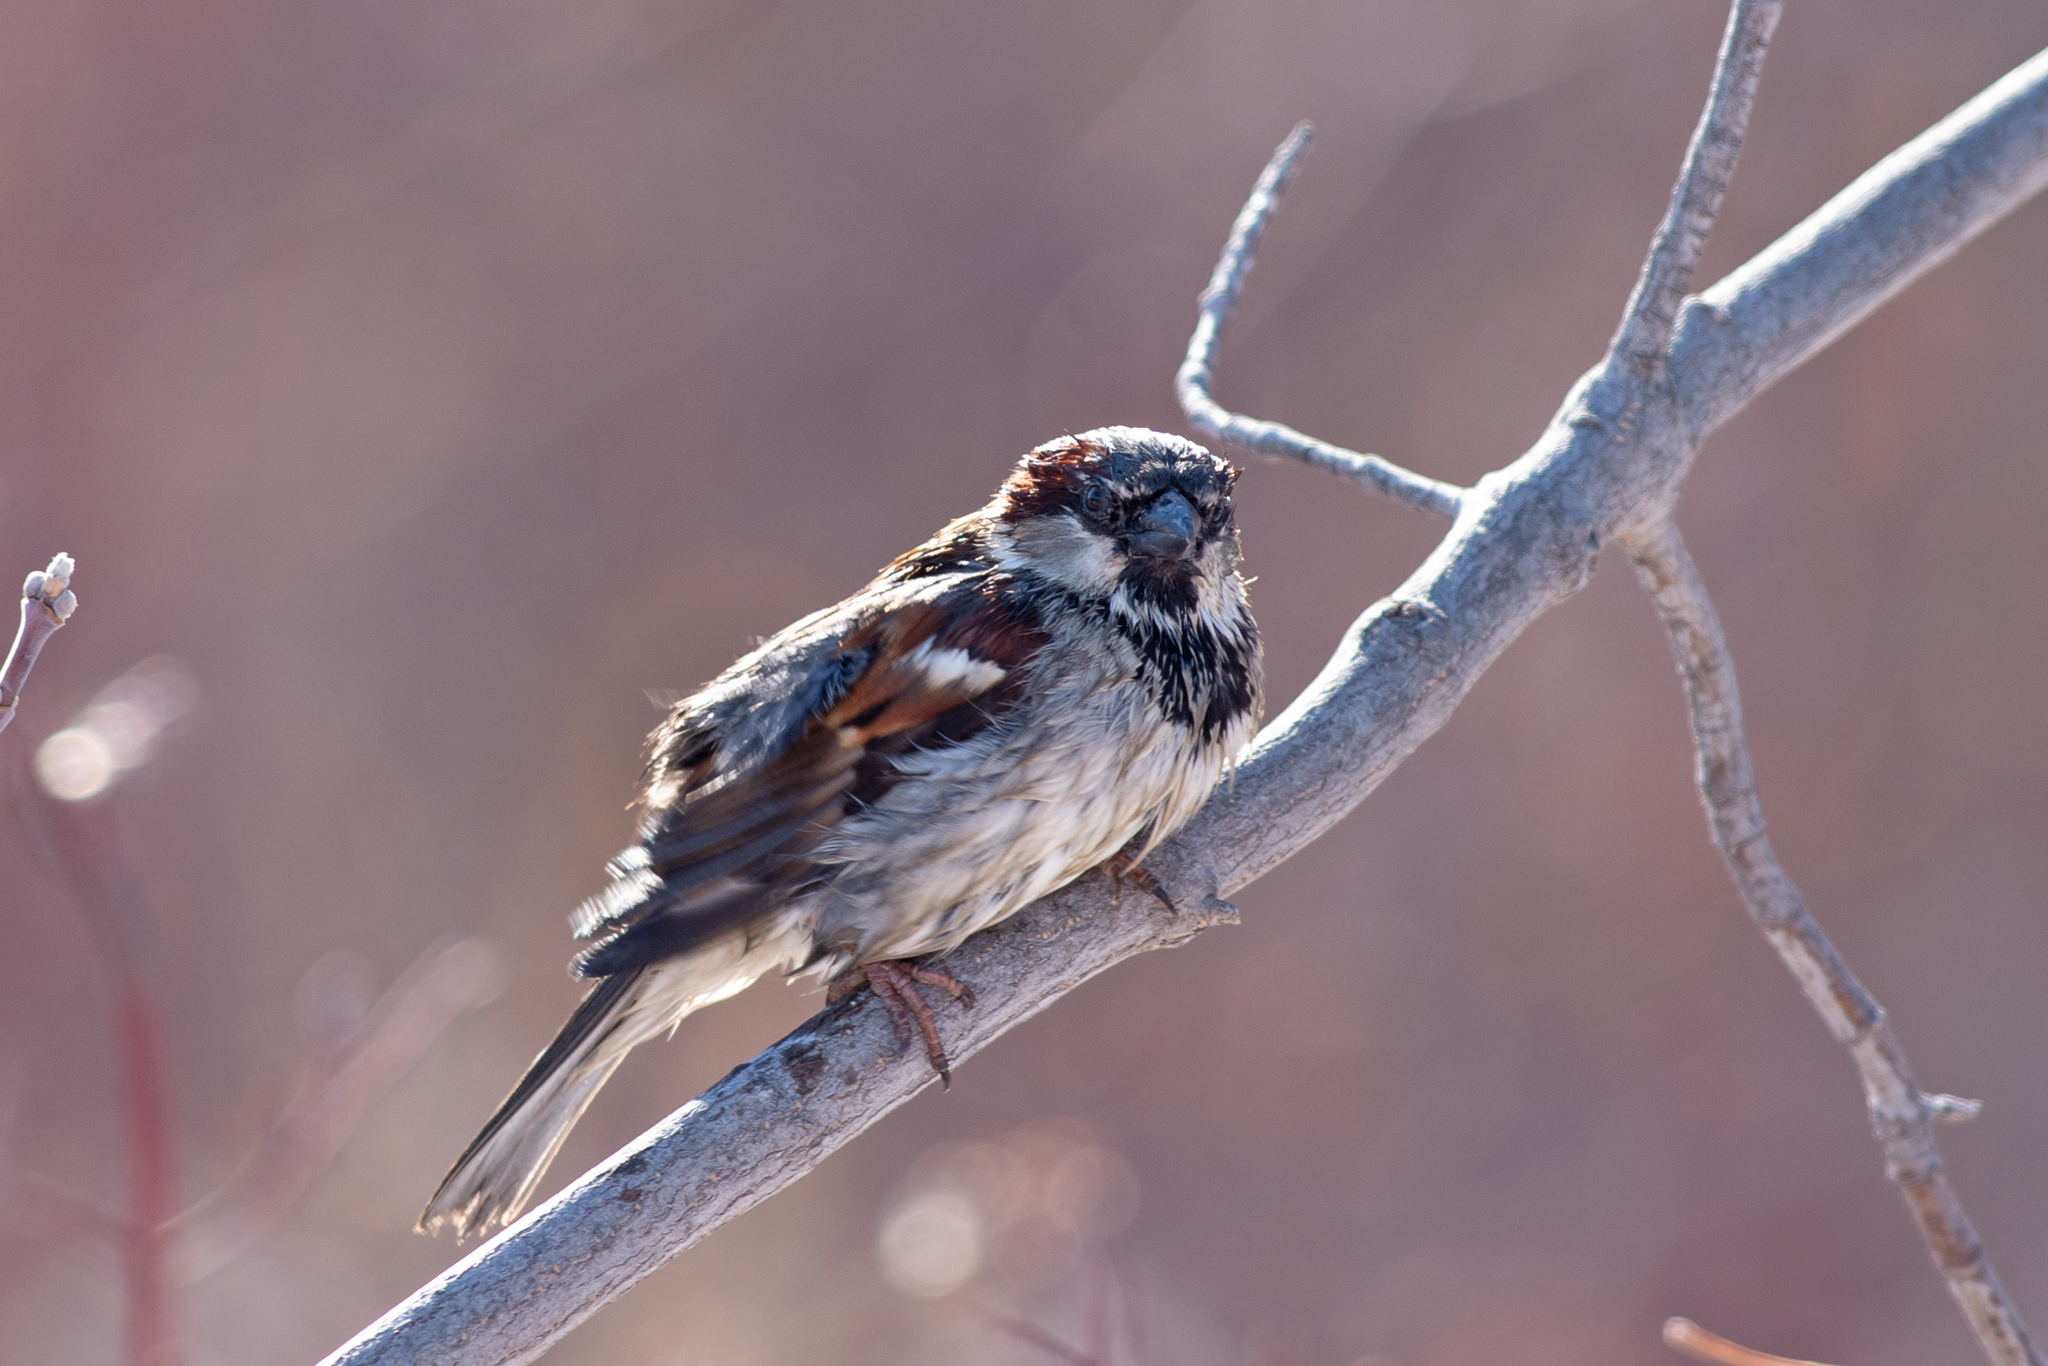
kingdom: Animalia
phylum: Chordata
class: Aves
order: Passeriformes
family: Passeridae
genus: Passer
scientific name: Passer domesticus
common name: House sparrow
